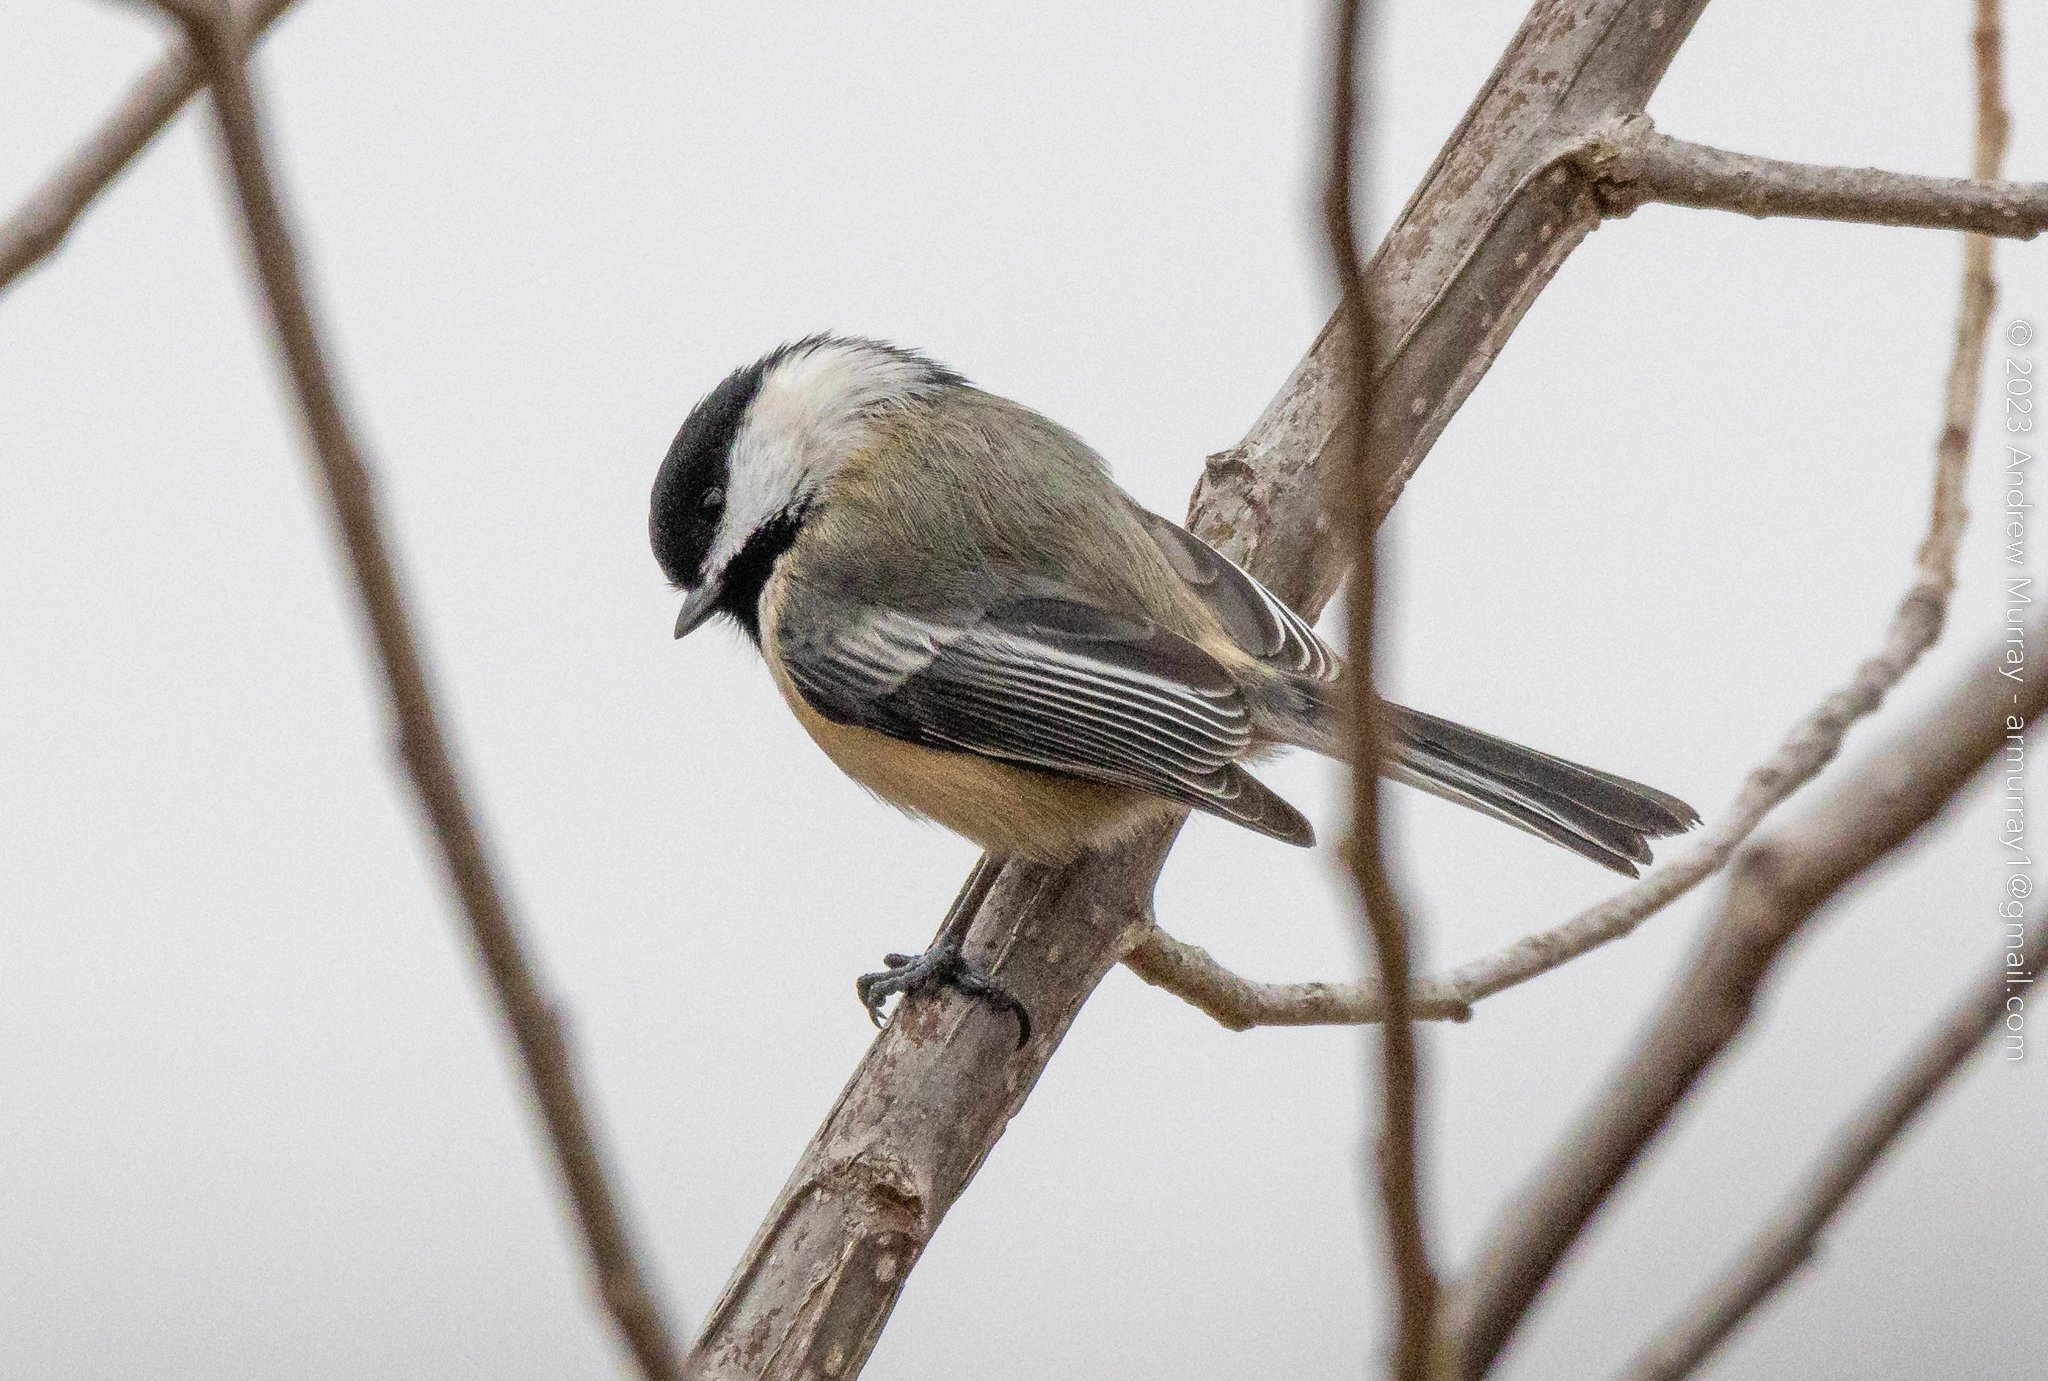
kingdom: Animalia
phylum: Chordata
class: Aves
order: Passeriformes
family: Paridae
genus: Poecile
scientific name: Poecile atricapillus
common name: Black-capped chickadee
